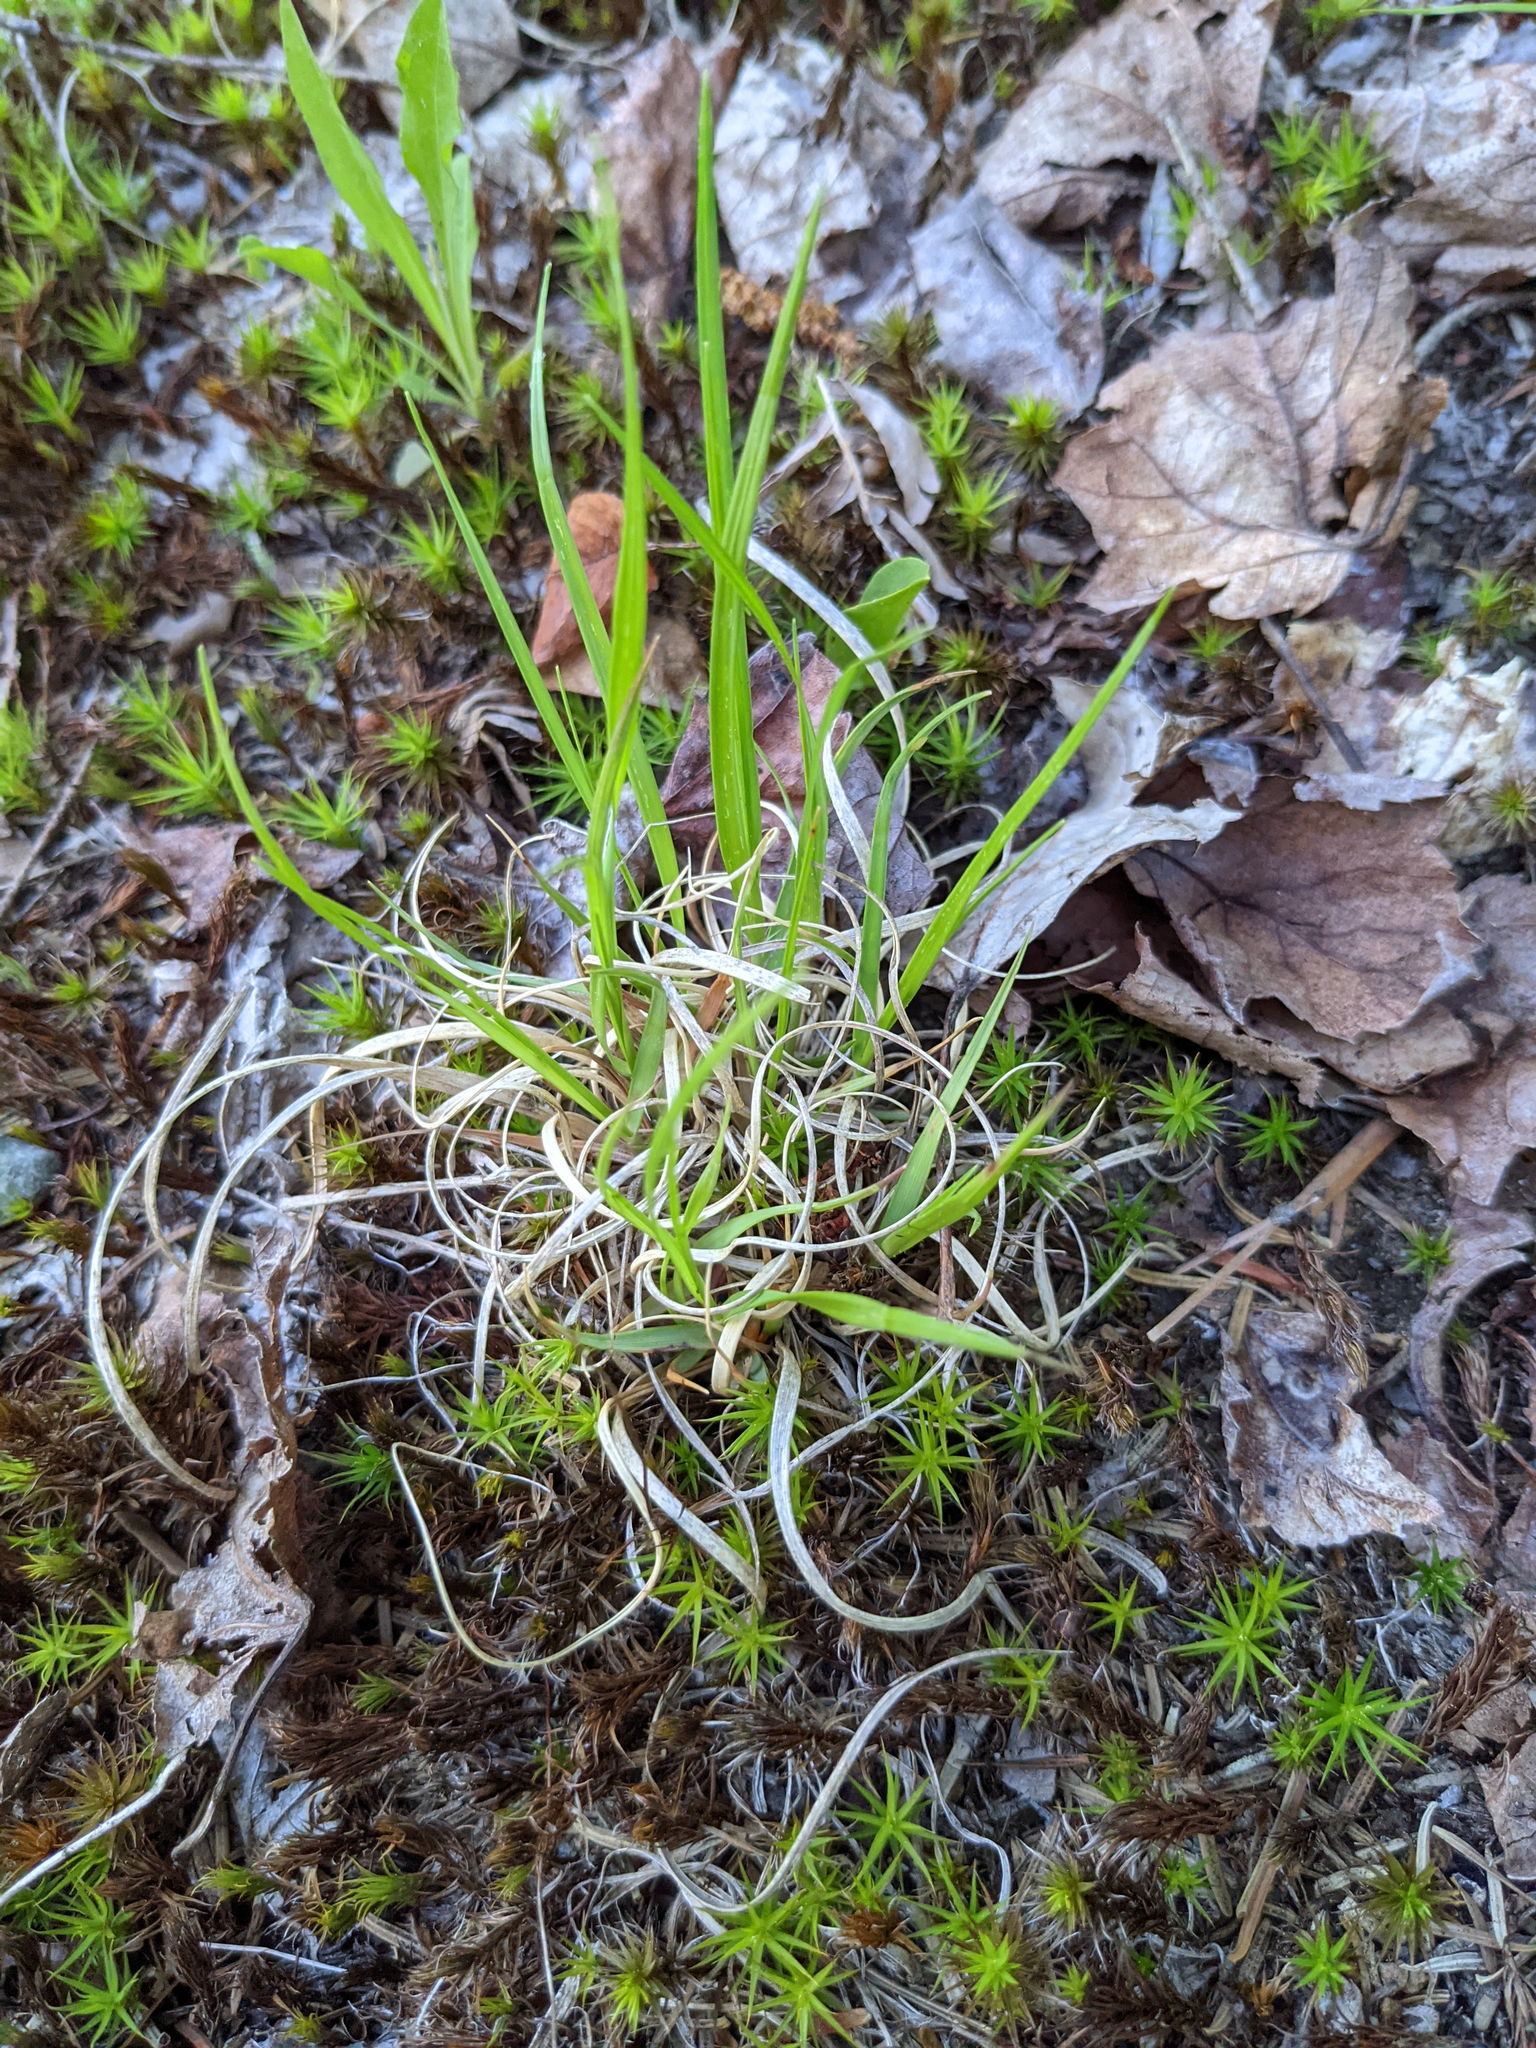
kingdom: Plantae
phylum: Tracheophyta
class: Liliopsida
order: Poales
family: Poaceae
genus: Danthonia
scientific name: Danthonia spicata
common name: Common wild oatgrass
